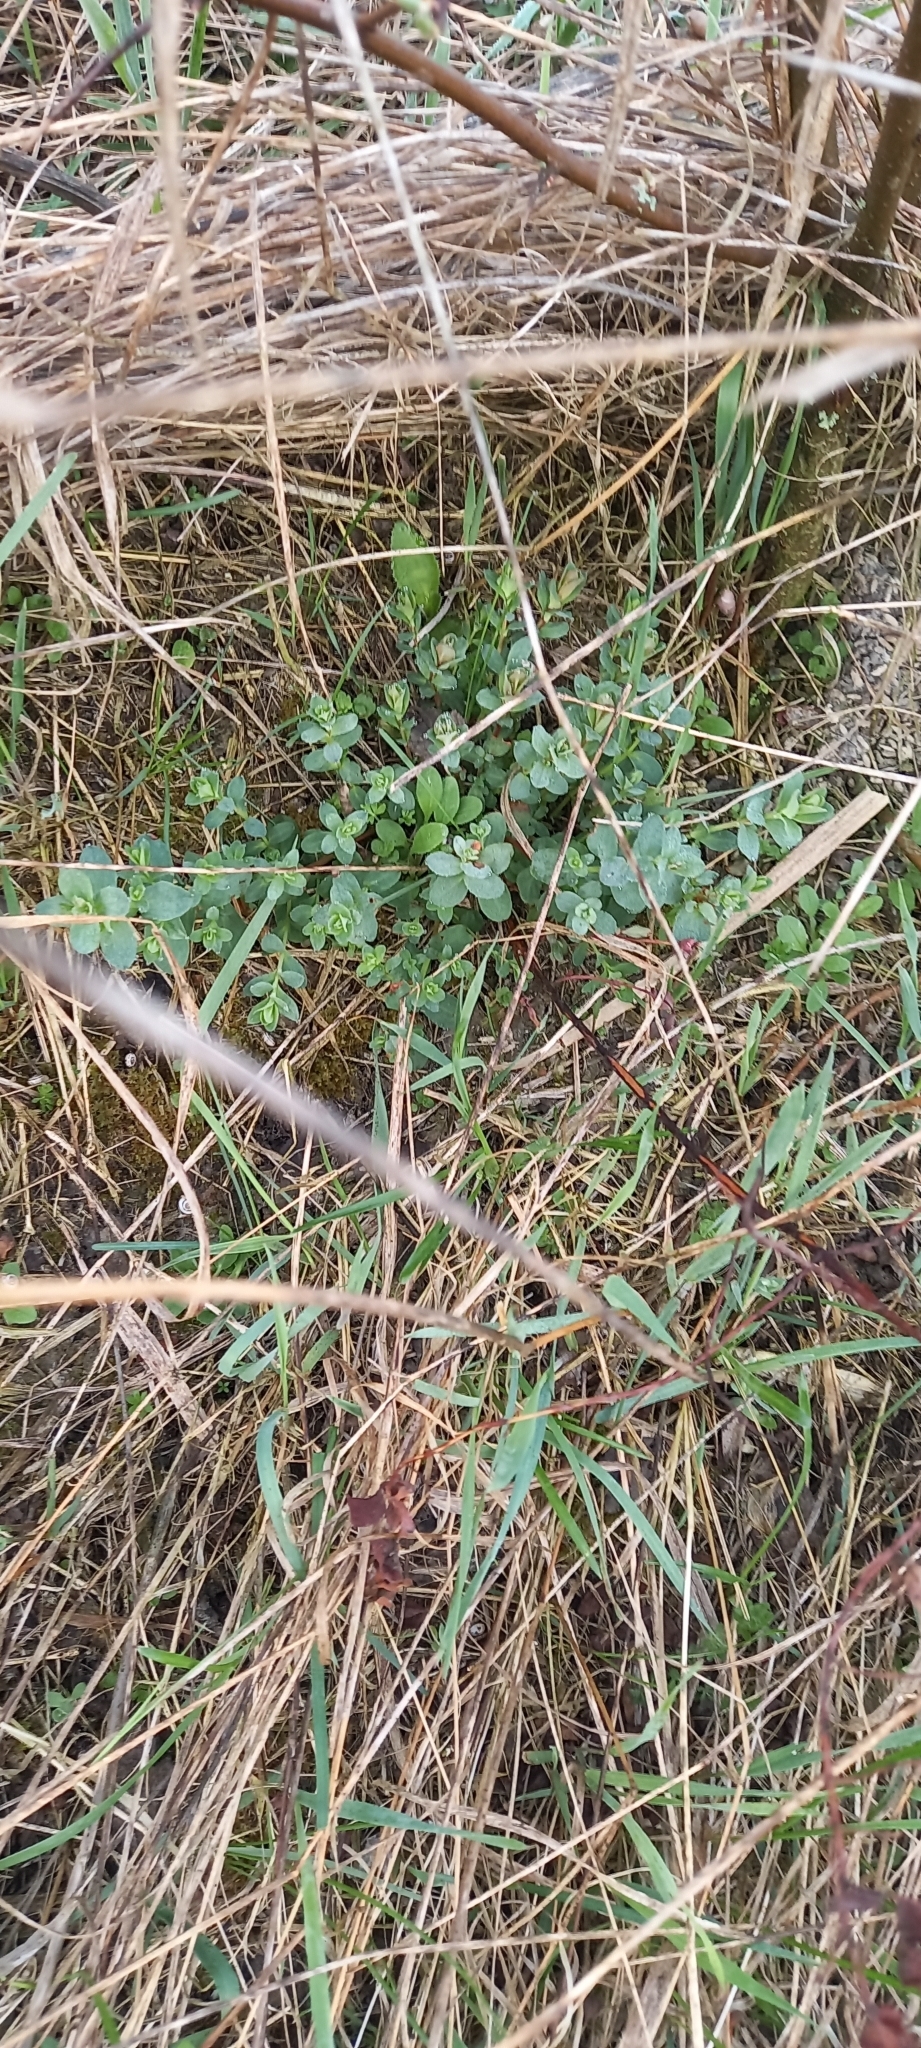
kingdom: Plantae
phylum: Tracheophyta
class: Magnoliopsida
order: Malpighiales
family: Hypericaceae
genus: Hypericum
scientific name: Hypericum perforatum
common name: Common st. johnswort
